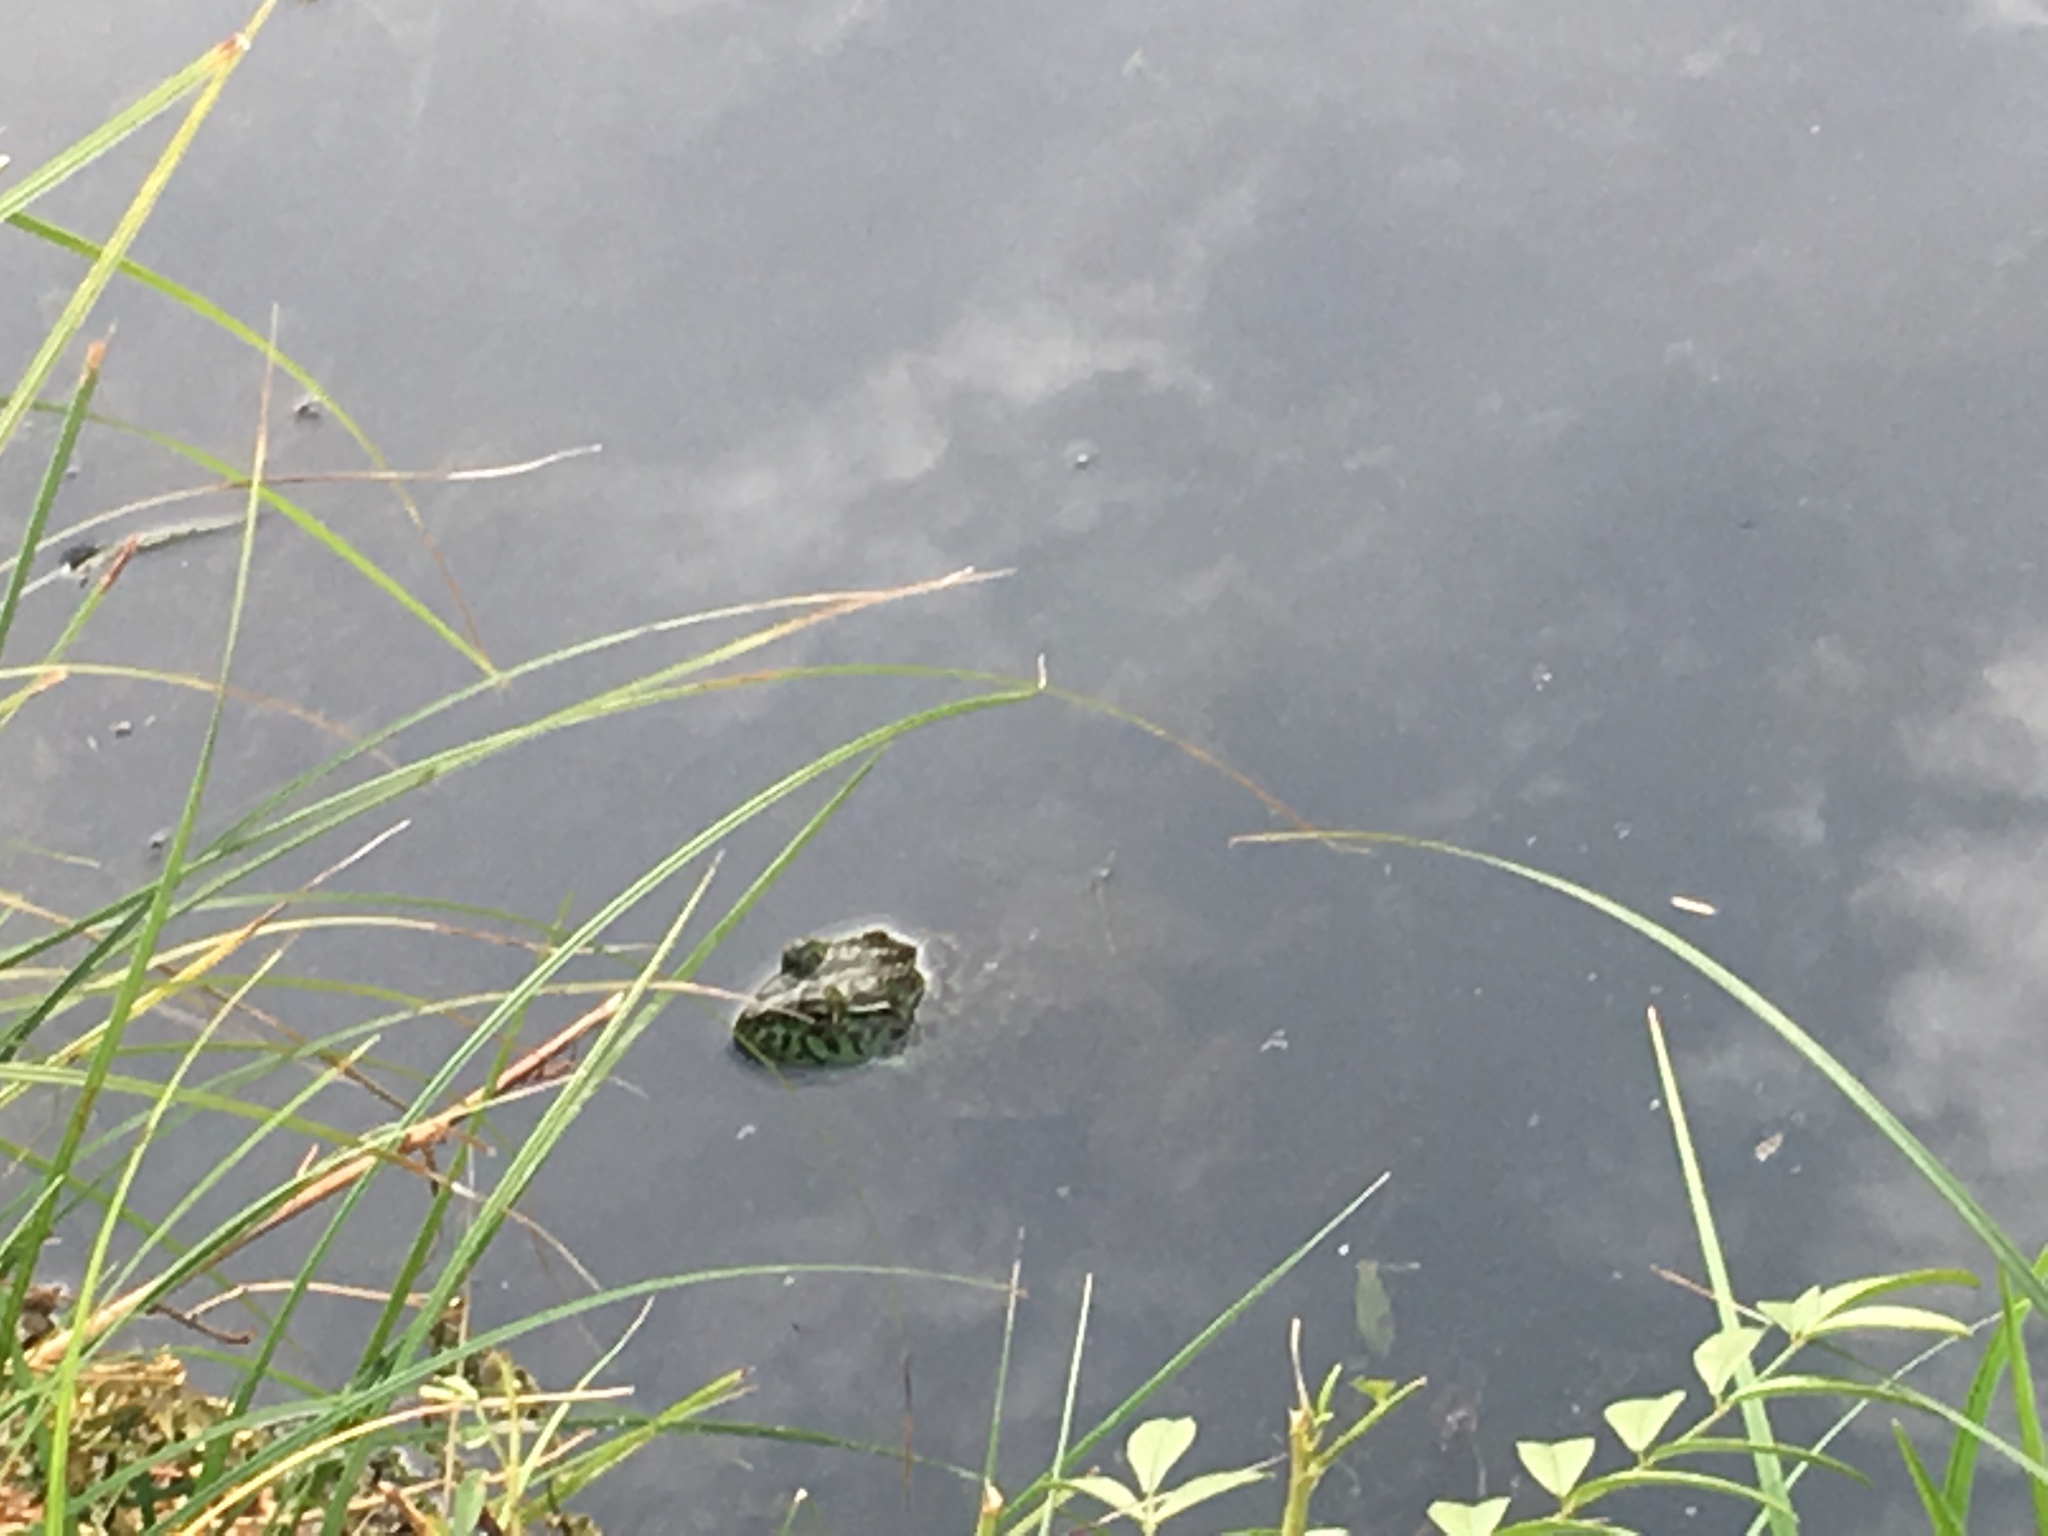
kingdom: Animalia
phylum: Chordata
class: Amphibia
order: Anura
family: Ranidae
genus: Lithobates
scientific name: Lithobates catesbeianus
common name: American bullfrog
